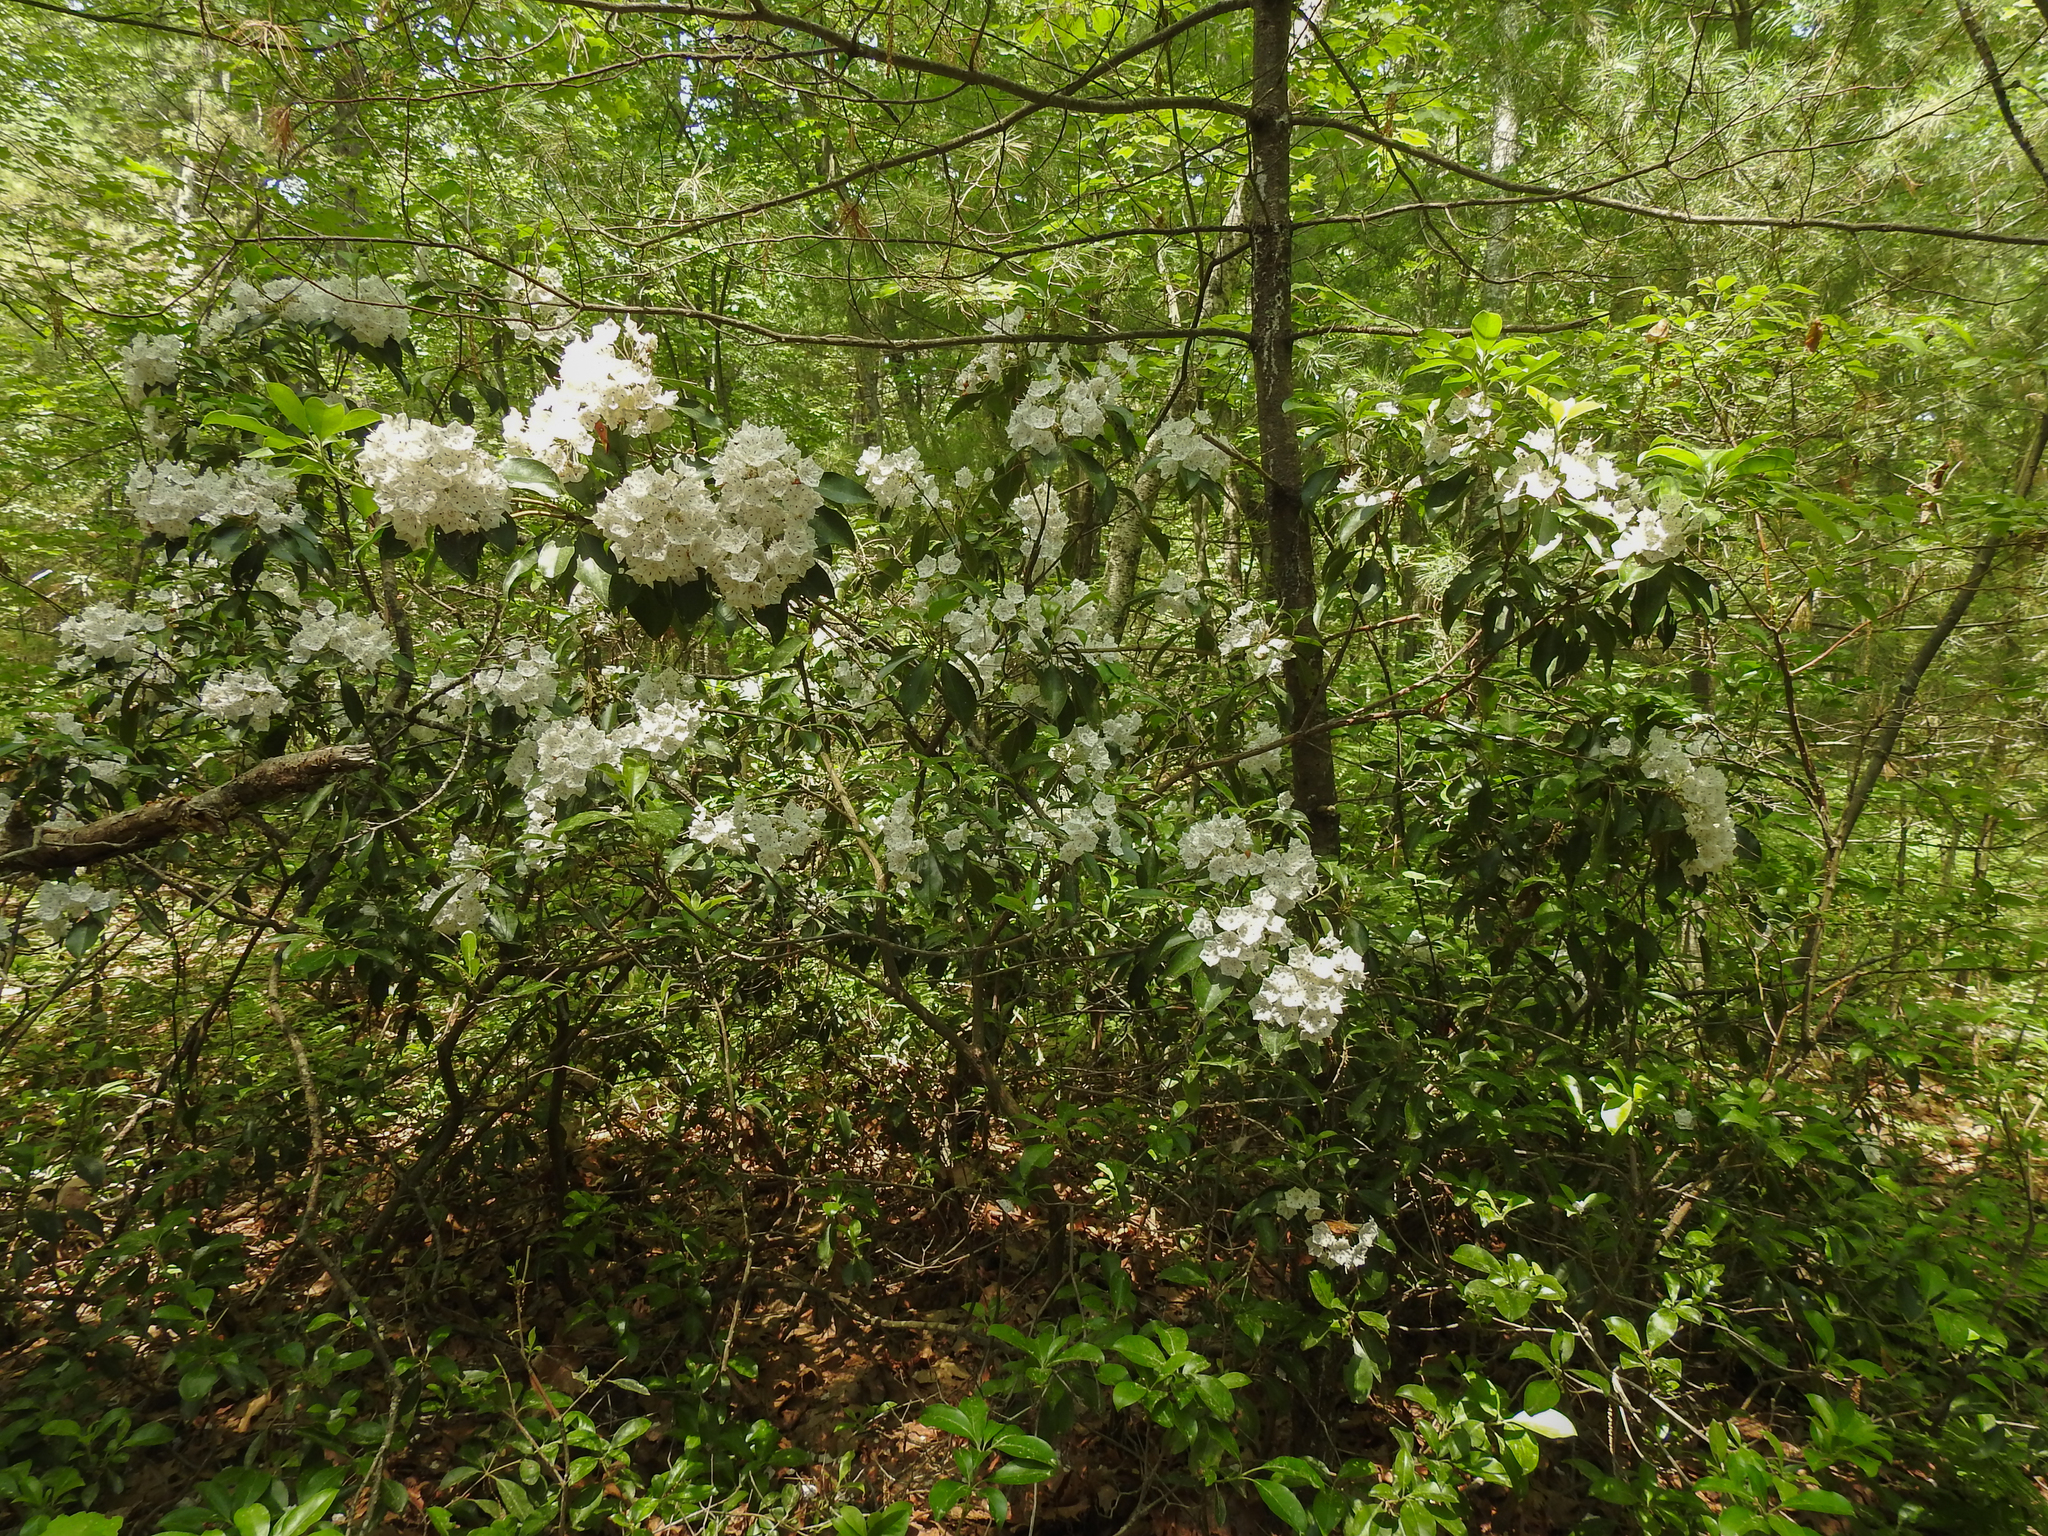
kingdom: Plantae
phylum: Tracheophyta
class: Magnoliopsida
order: Ericales
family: Ericaceae
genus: Kalmia
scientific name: Kalmia latifolia
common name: Mountain-laurel
